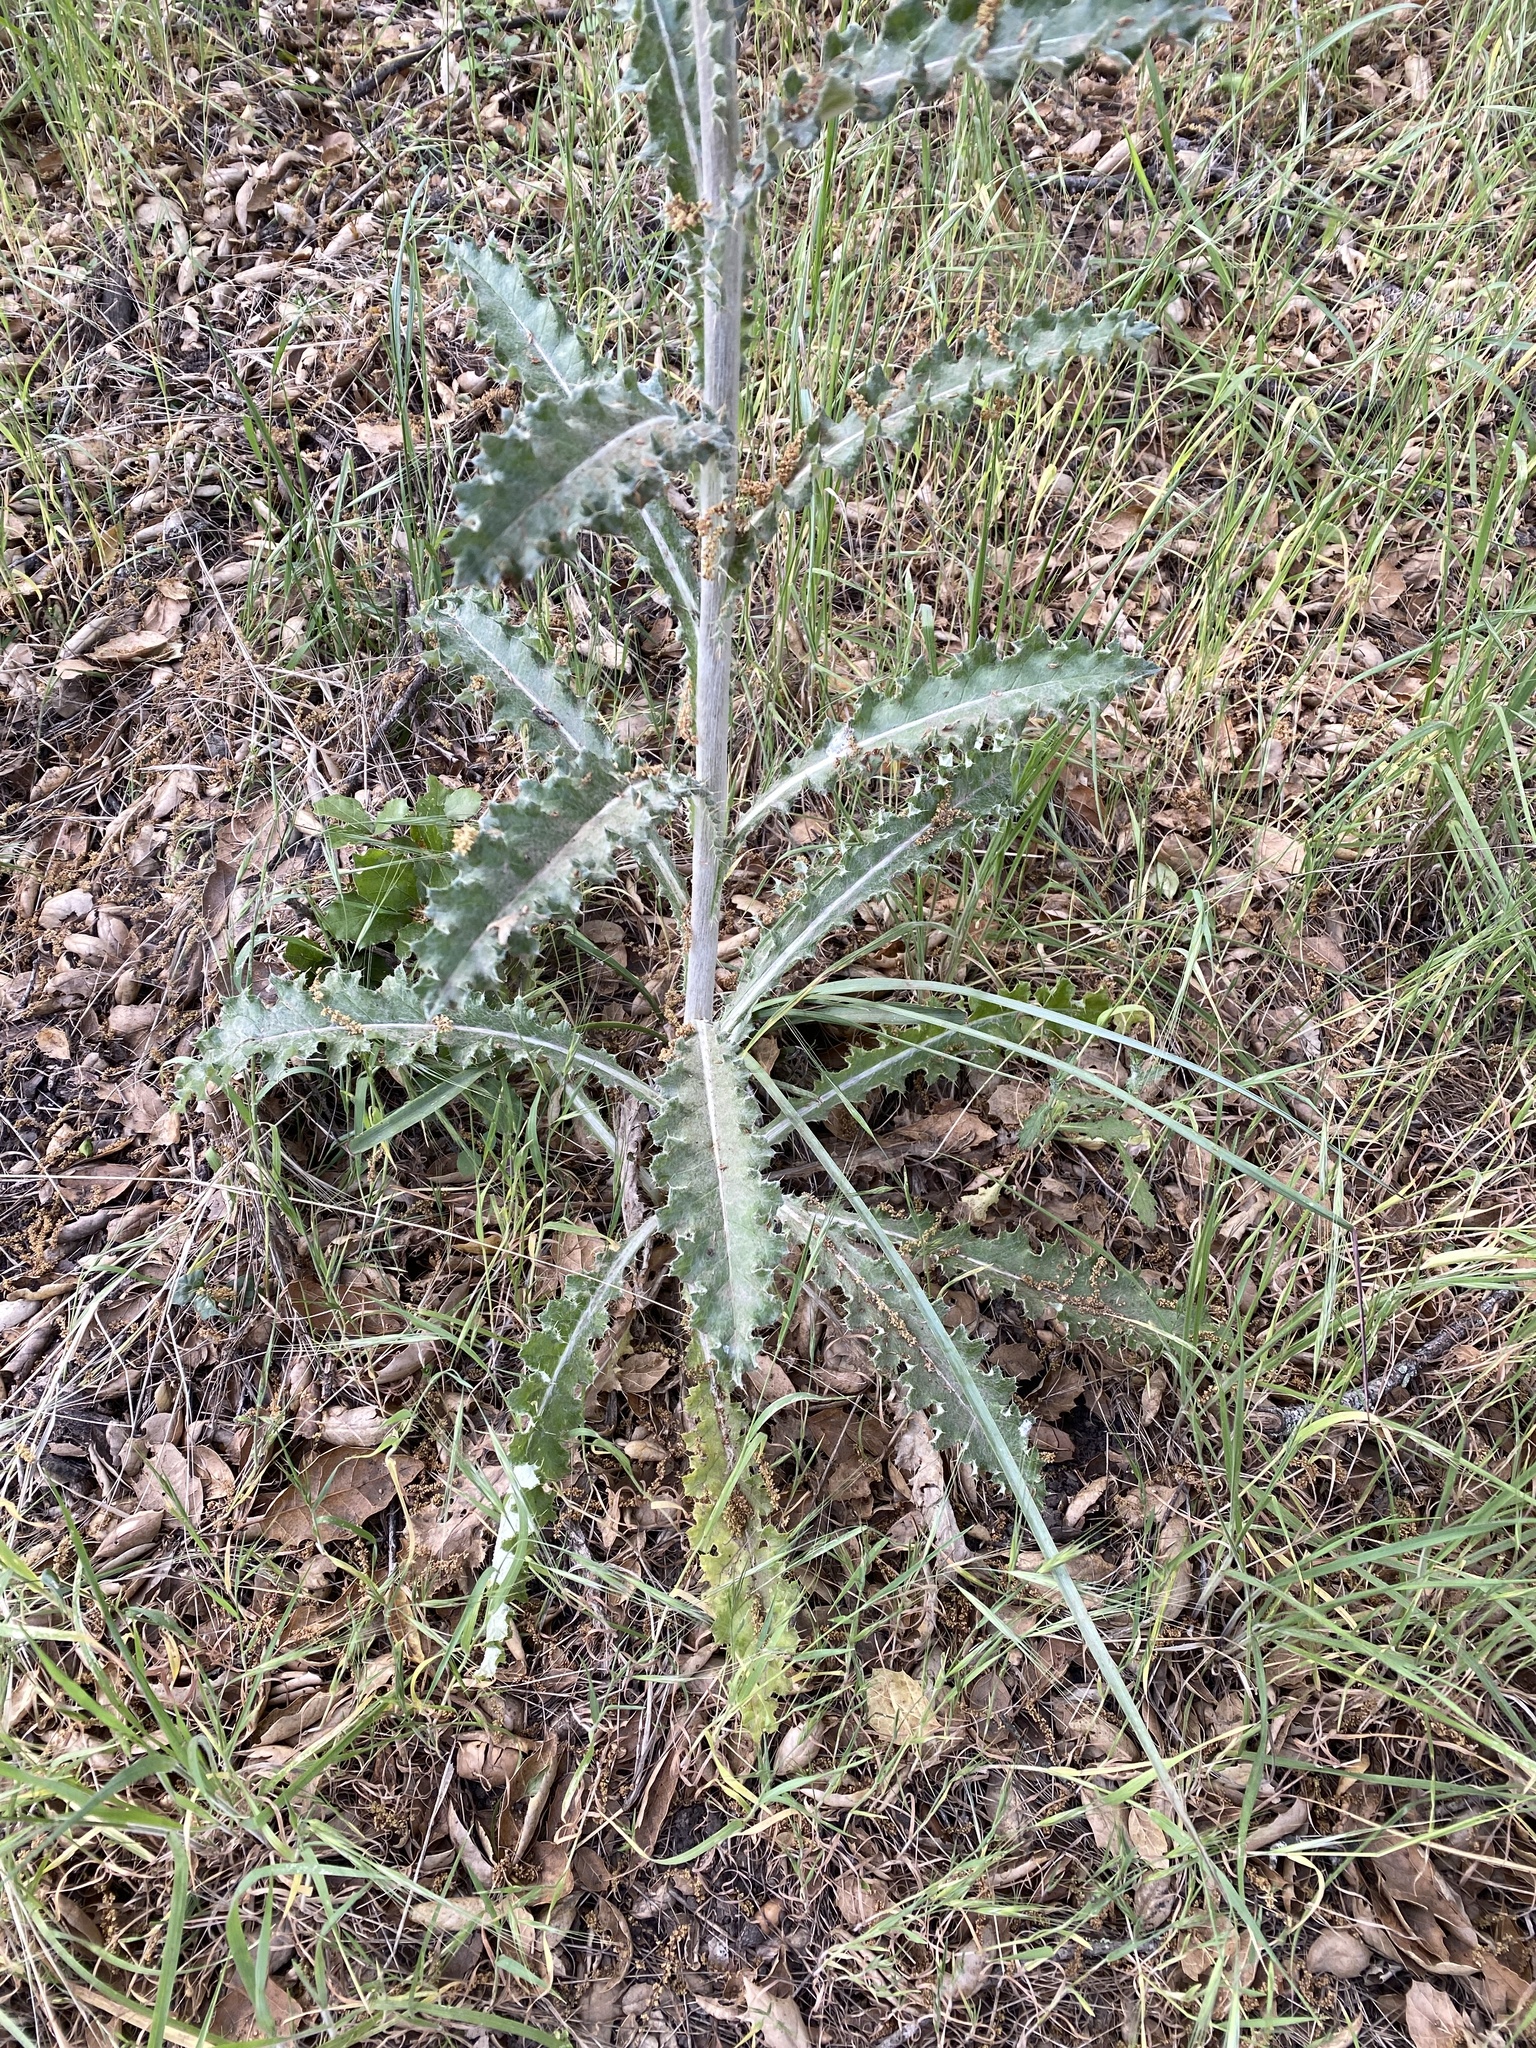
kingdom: Plantae
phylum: Tracheophyta
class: Magnoliopsida
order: Asterales
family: Asteraceae
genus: Cirsium
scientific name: Cirsium occidentale
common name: Western thistle
